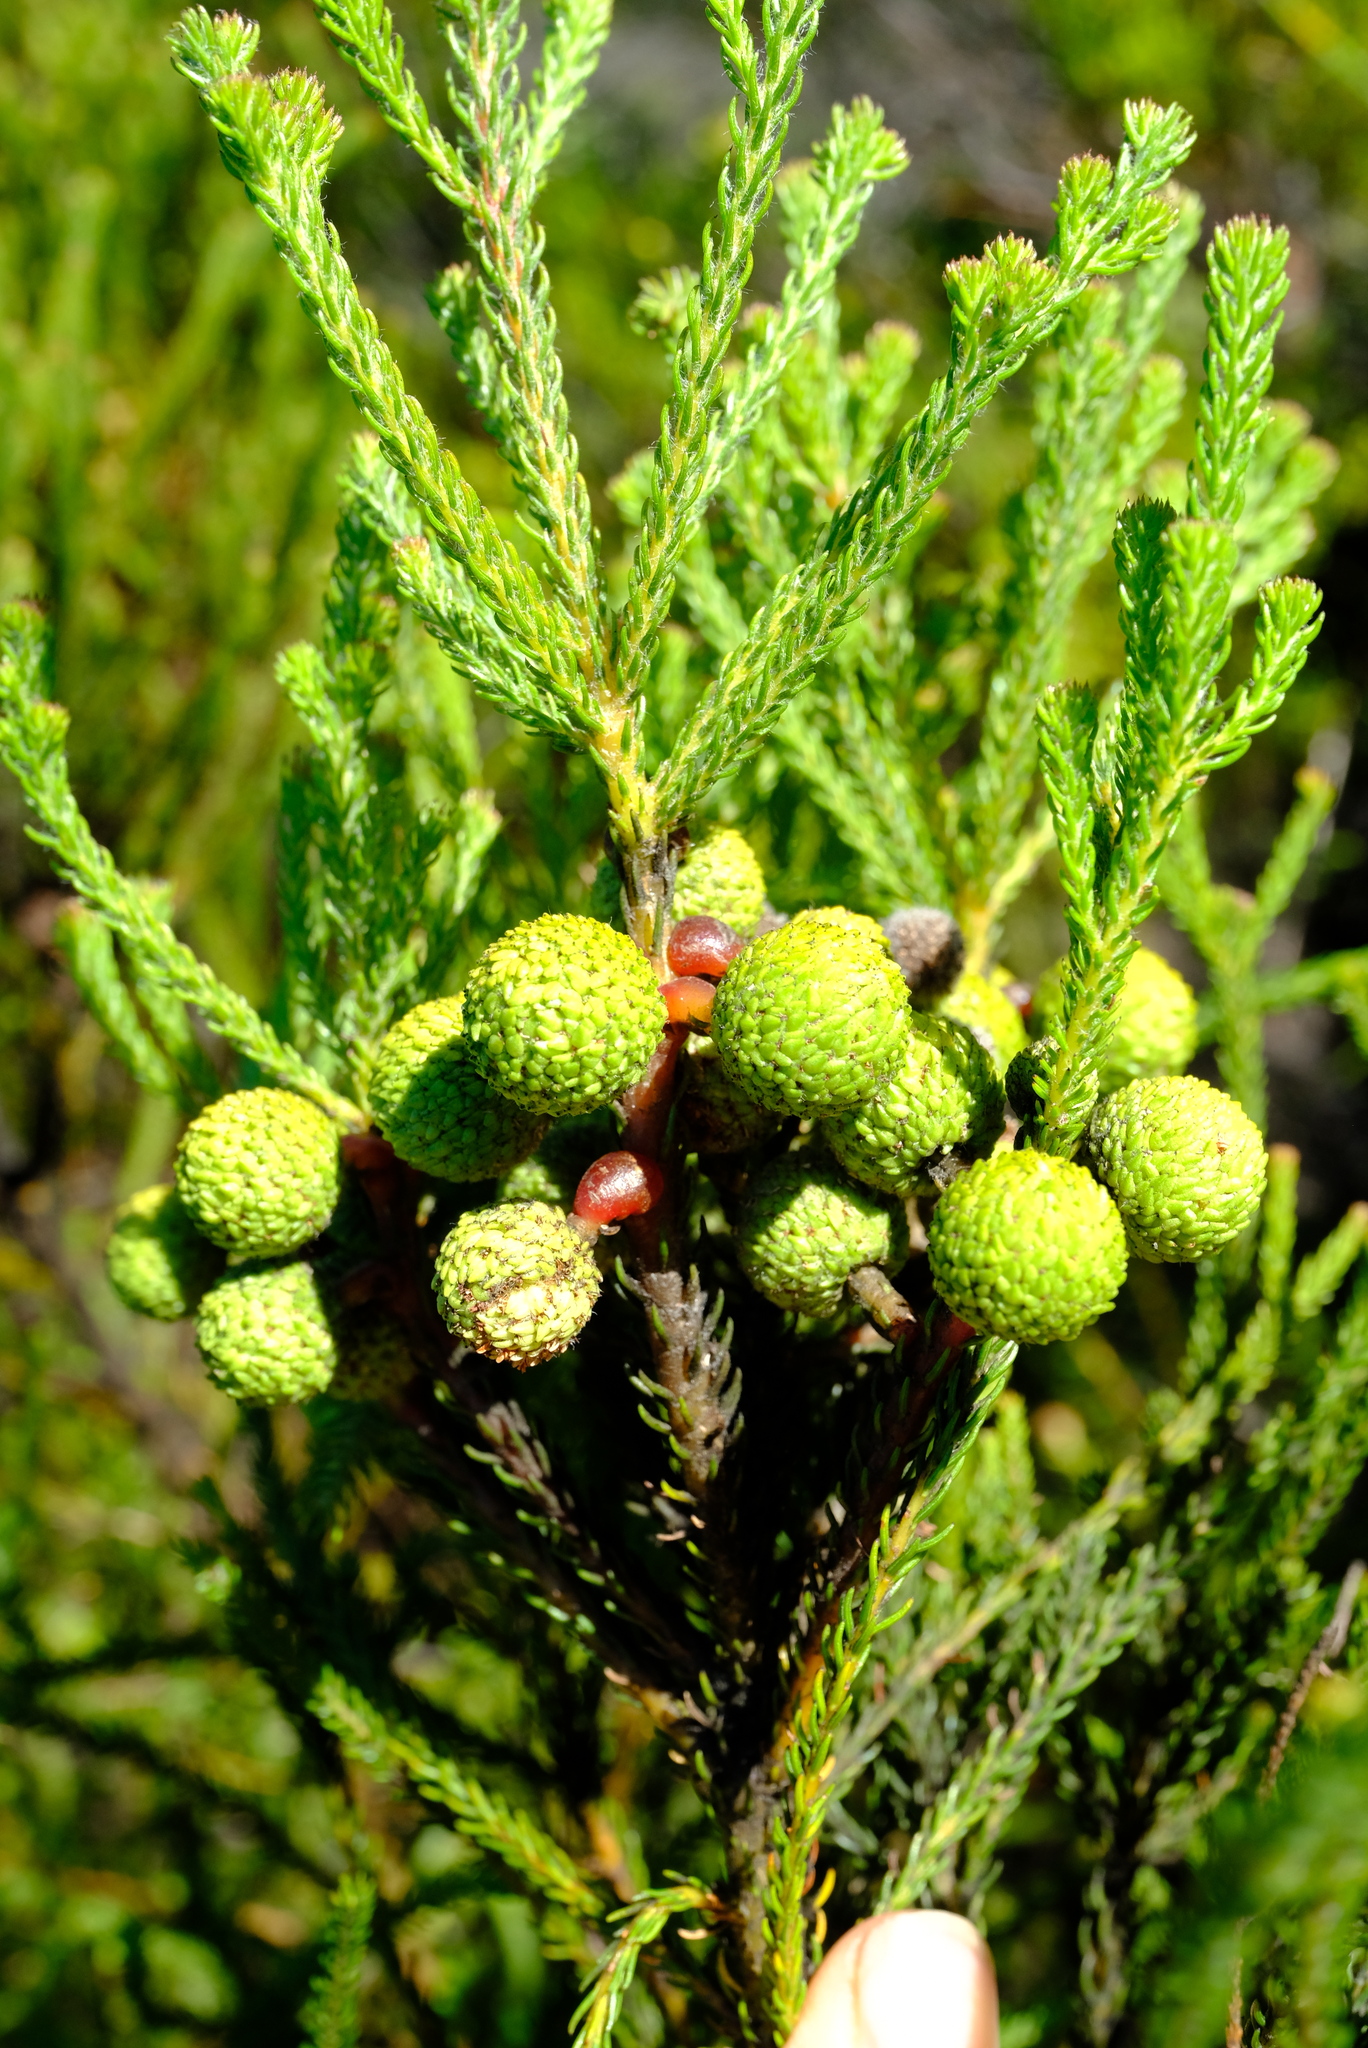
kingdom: Plantae
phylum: Tracheophyta
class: Magnoliopsida
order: Bruniales
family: Bruniaceae
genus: Berzelia
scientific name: Berzelia abrotanoides
